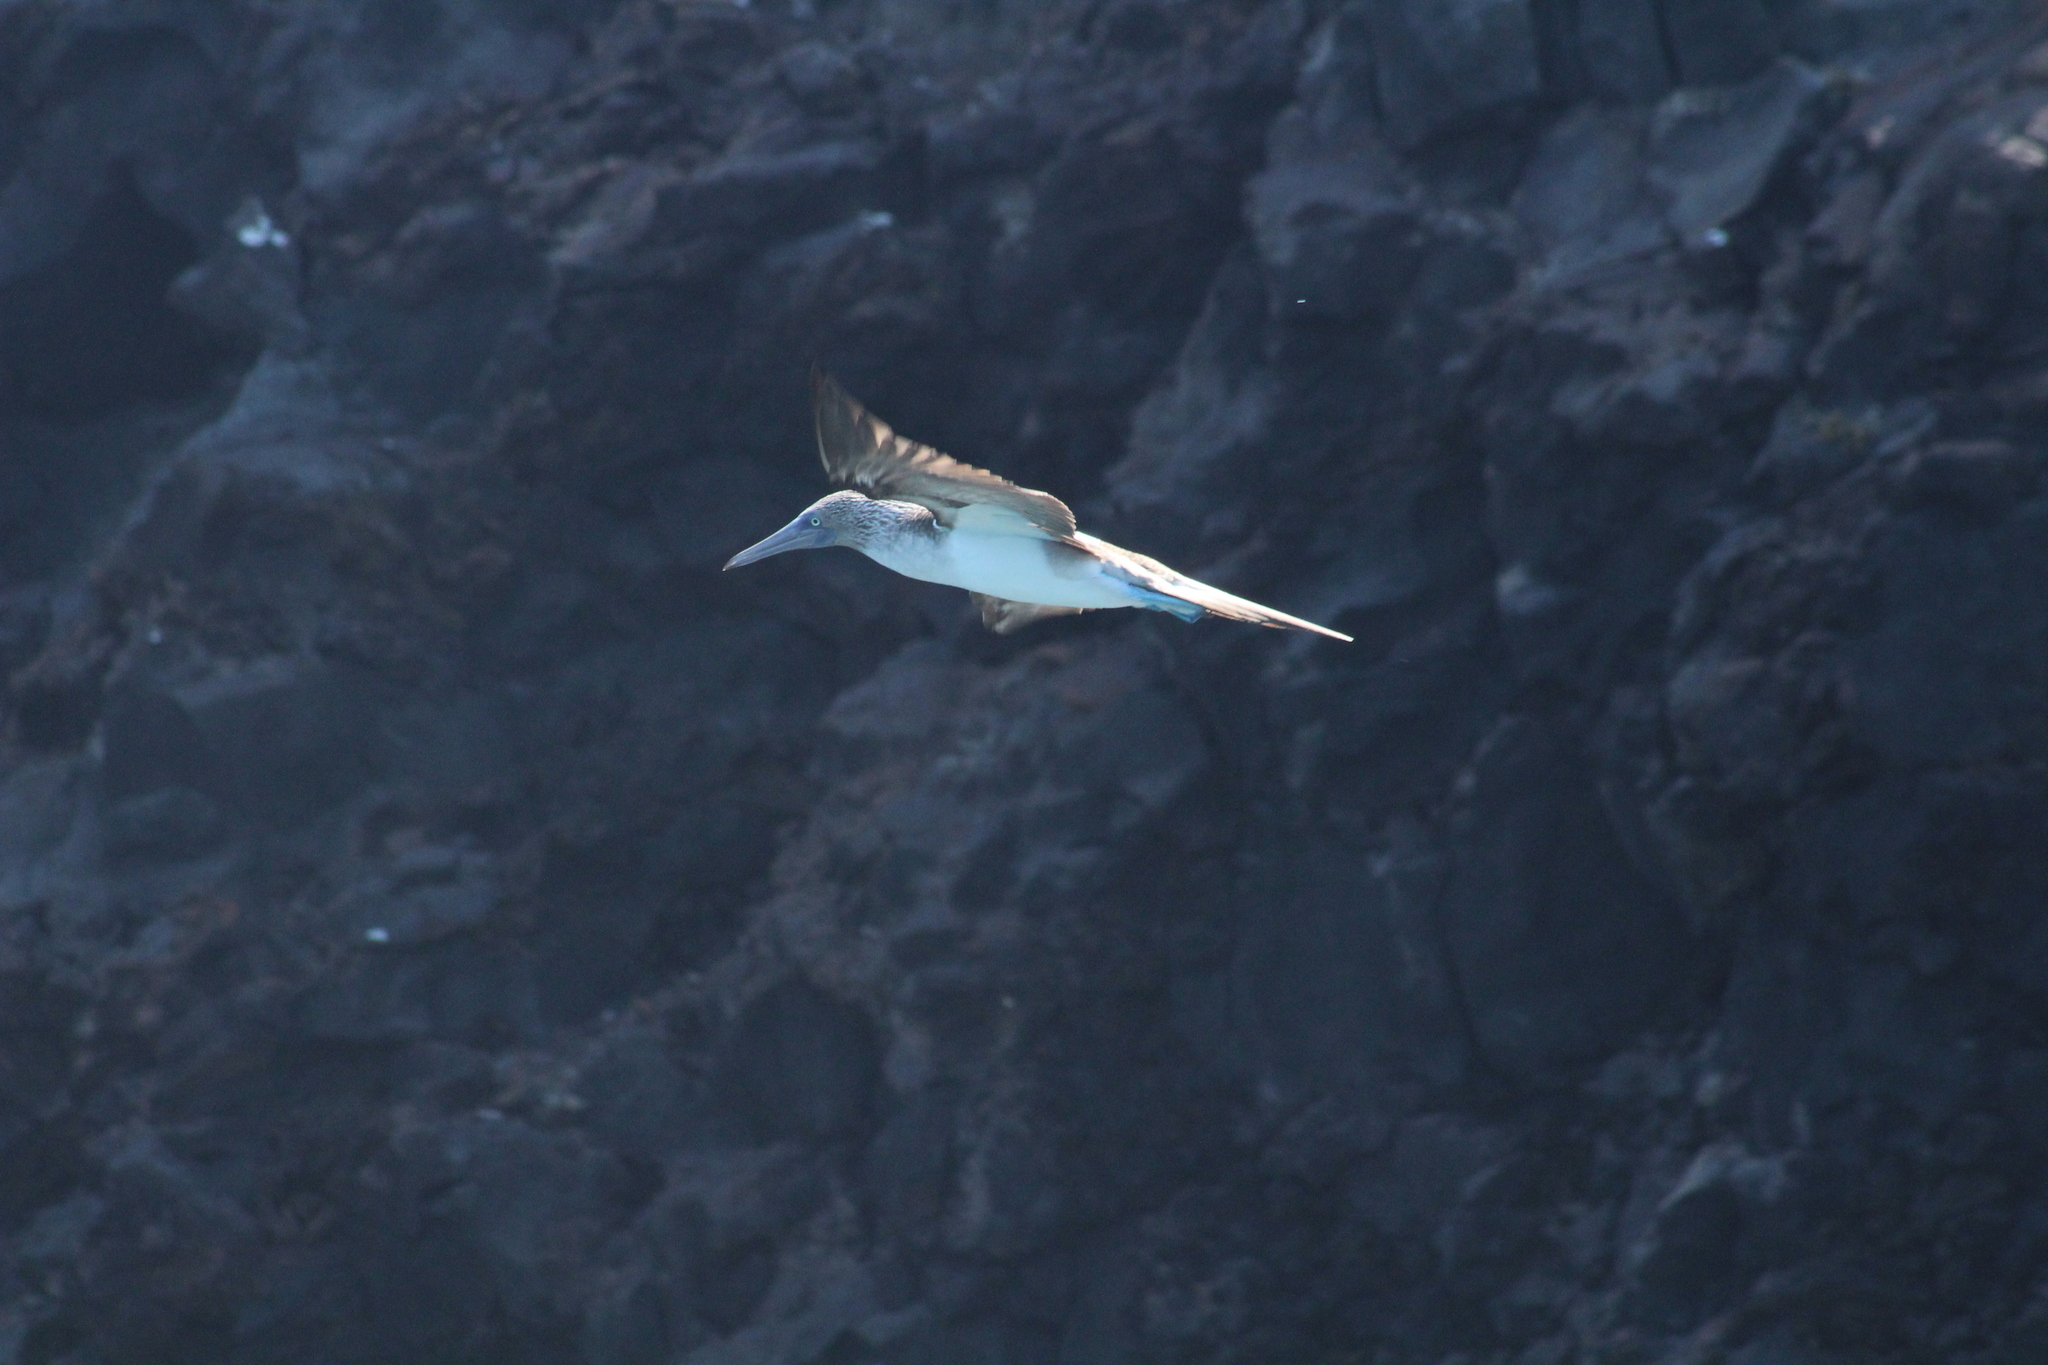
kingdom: Animalia
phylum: Chordata
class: Aves
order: Suliformes
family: Sulidae
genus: Sula
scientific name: Sula nebouxii
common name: Blue-footed booby
